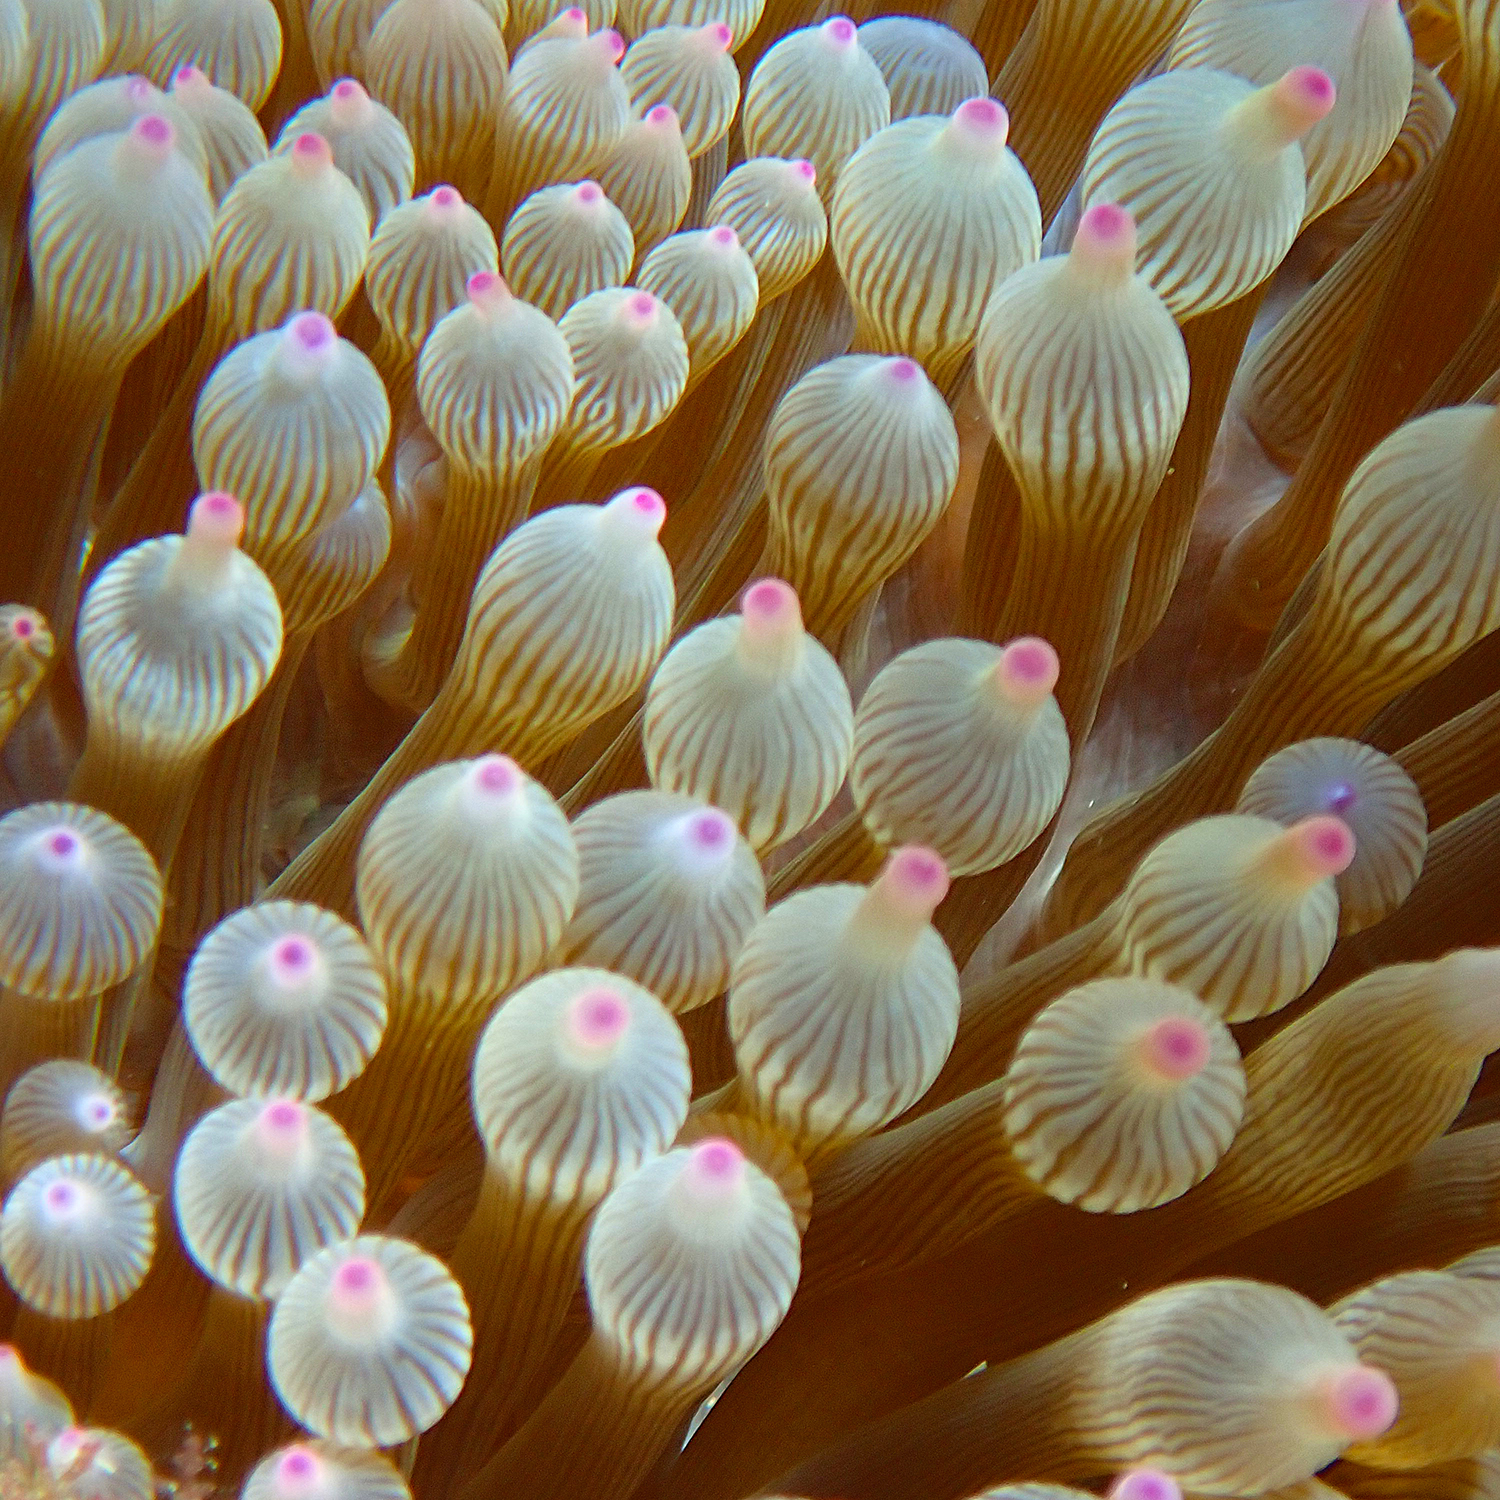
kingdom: Animalia
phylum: Cnidaria
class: Anthozoa
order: Actiniaria
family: Actiniidae
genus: Entacmaea
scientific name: Entacmaea quadricolor
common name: Bulb tentacle sea anemone
